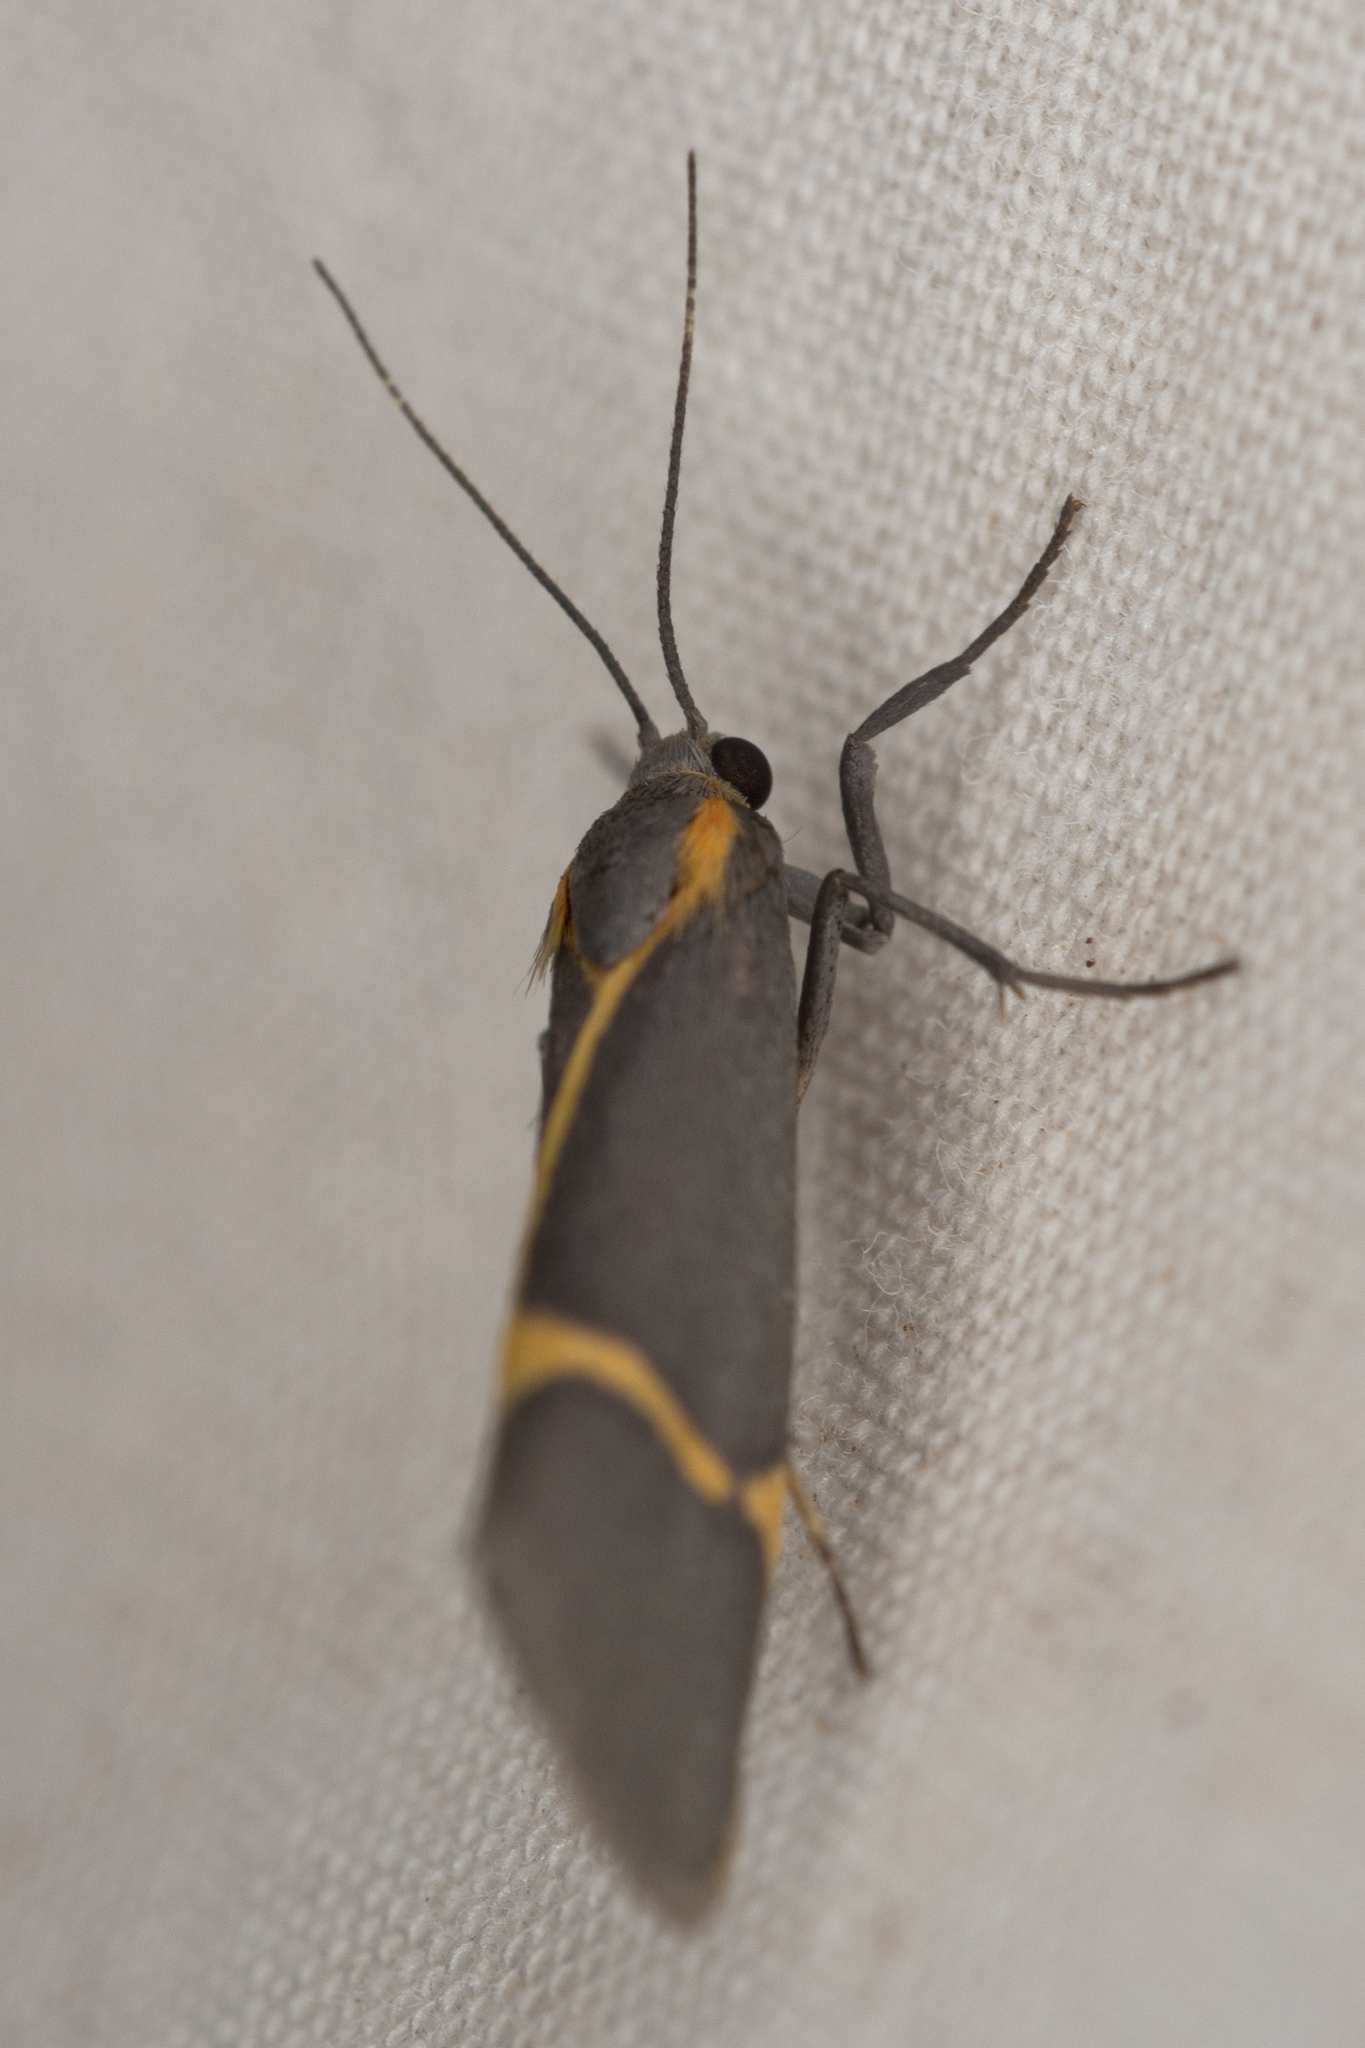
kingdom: Animalia
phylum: Arthropoda
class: Insecta
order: Lepidoptera
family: Erebidae
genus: Cisthene
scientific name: Cisthene barnesii
